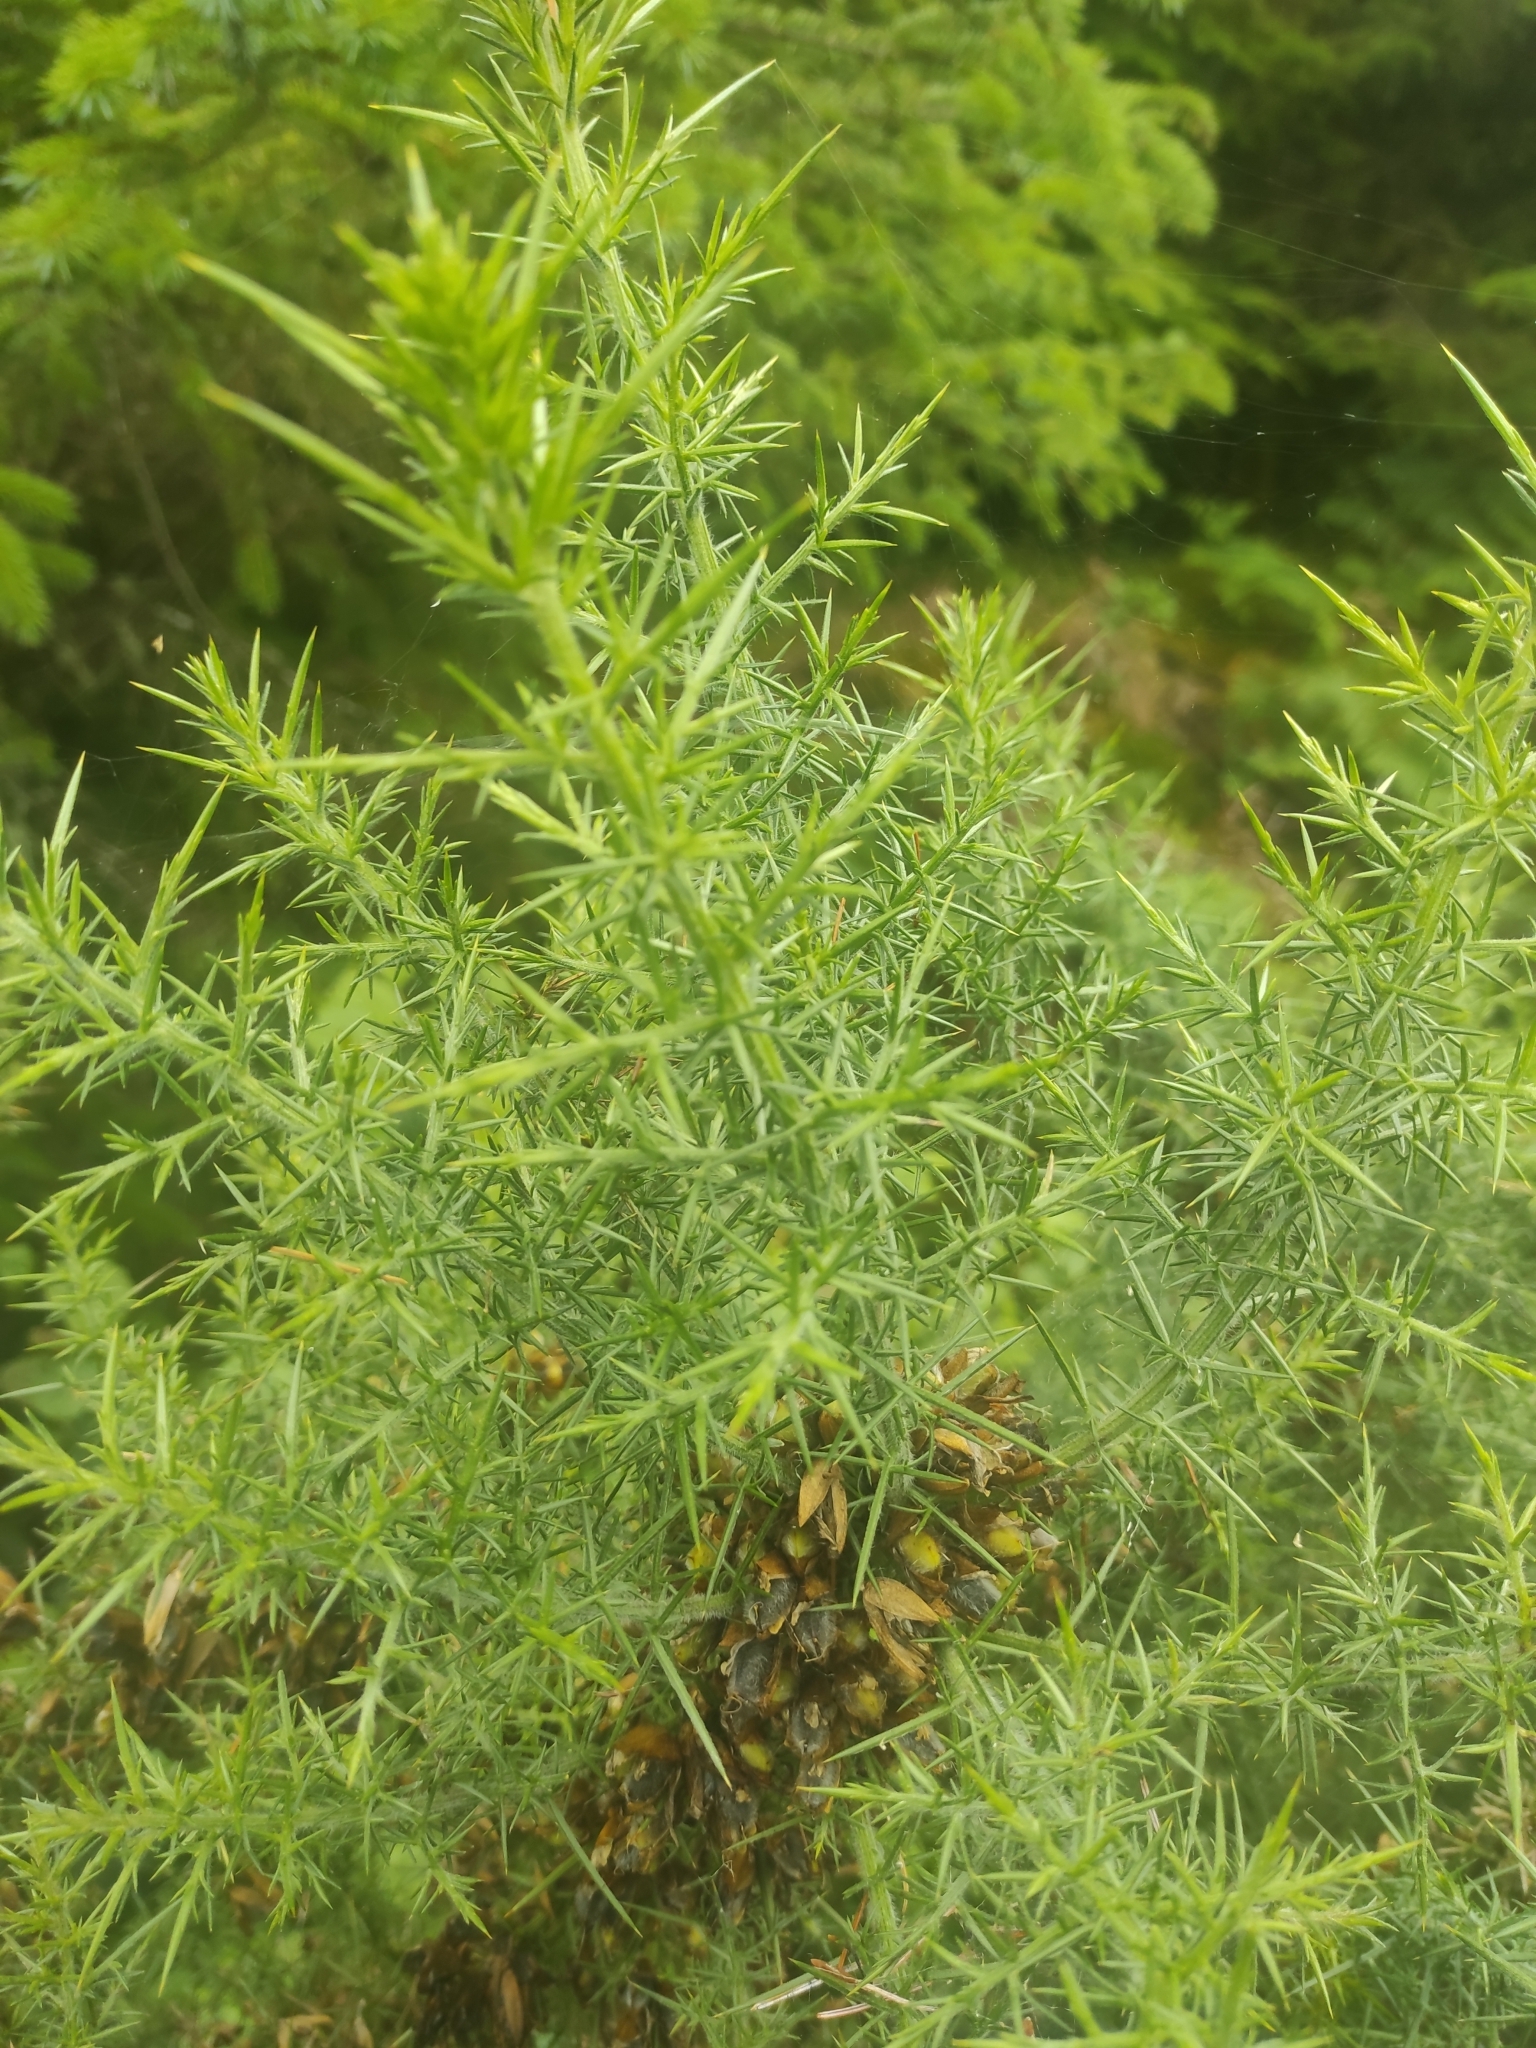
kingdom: Plantae
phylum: Tracheophyta
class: Magnoliopsida
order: Fabales
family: Fabaceae
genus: Ulex
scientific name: Ulex europaeus
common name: Common gorse
